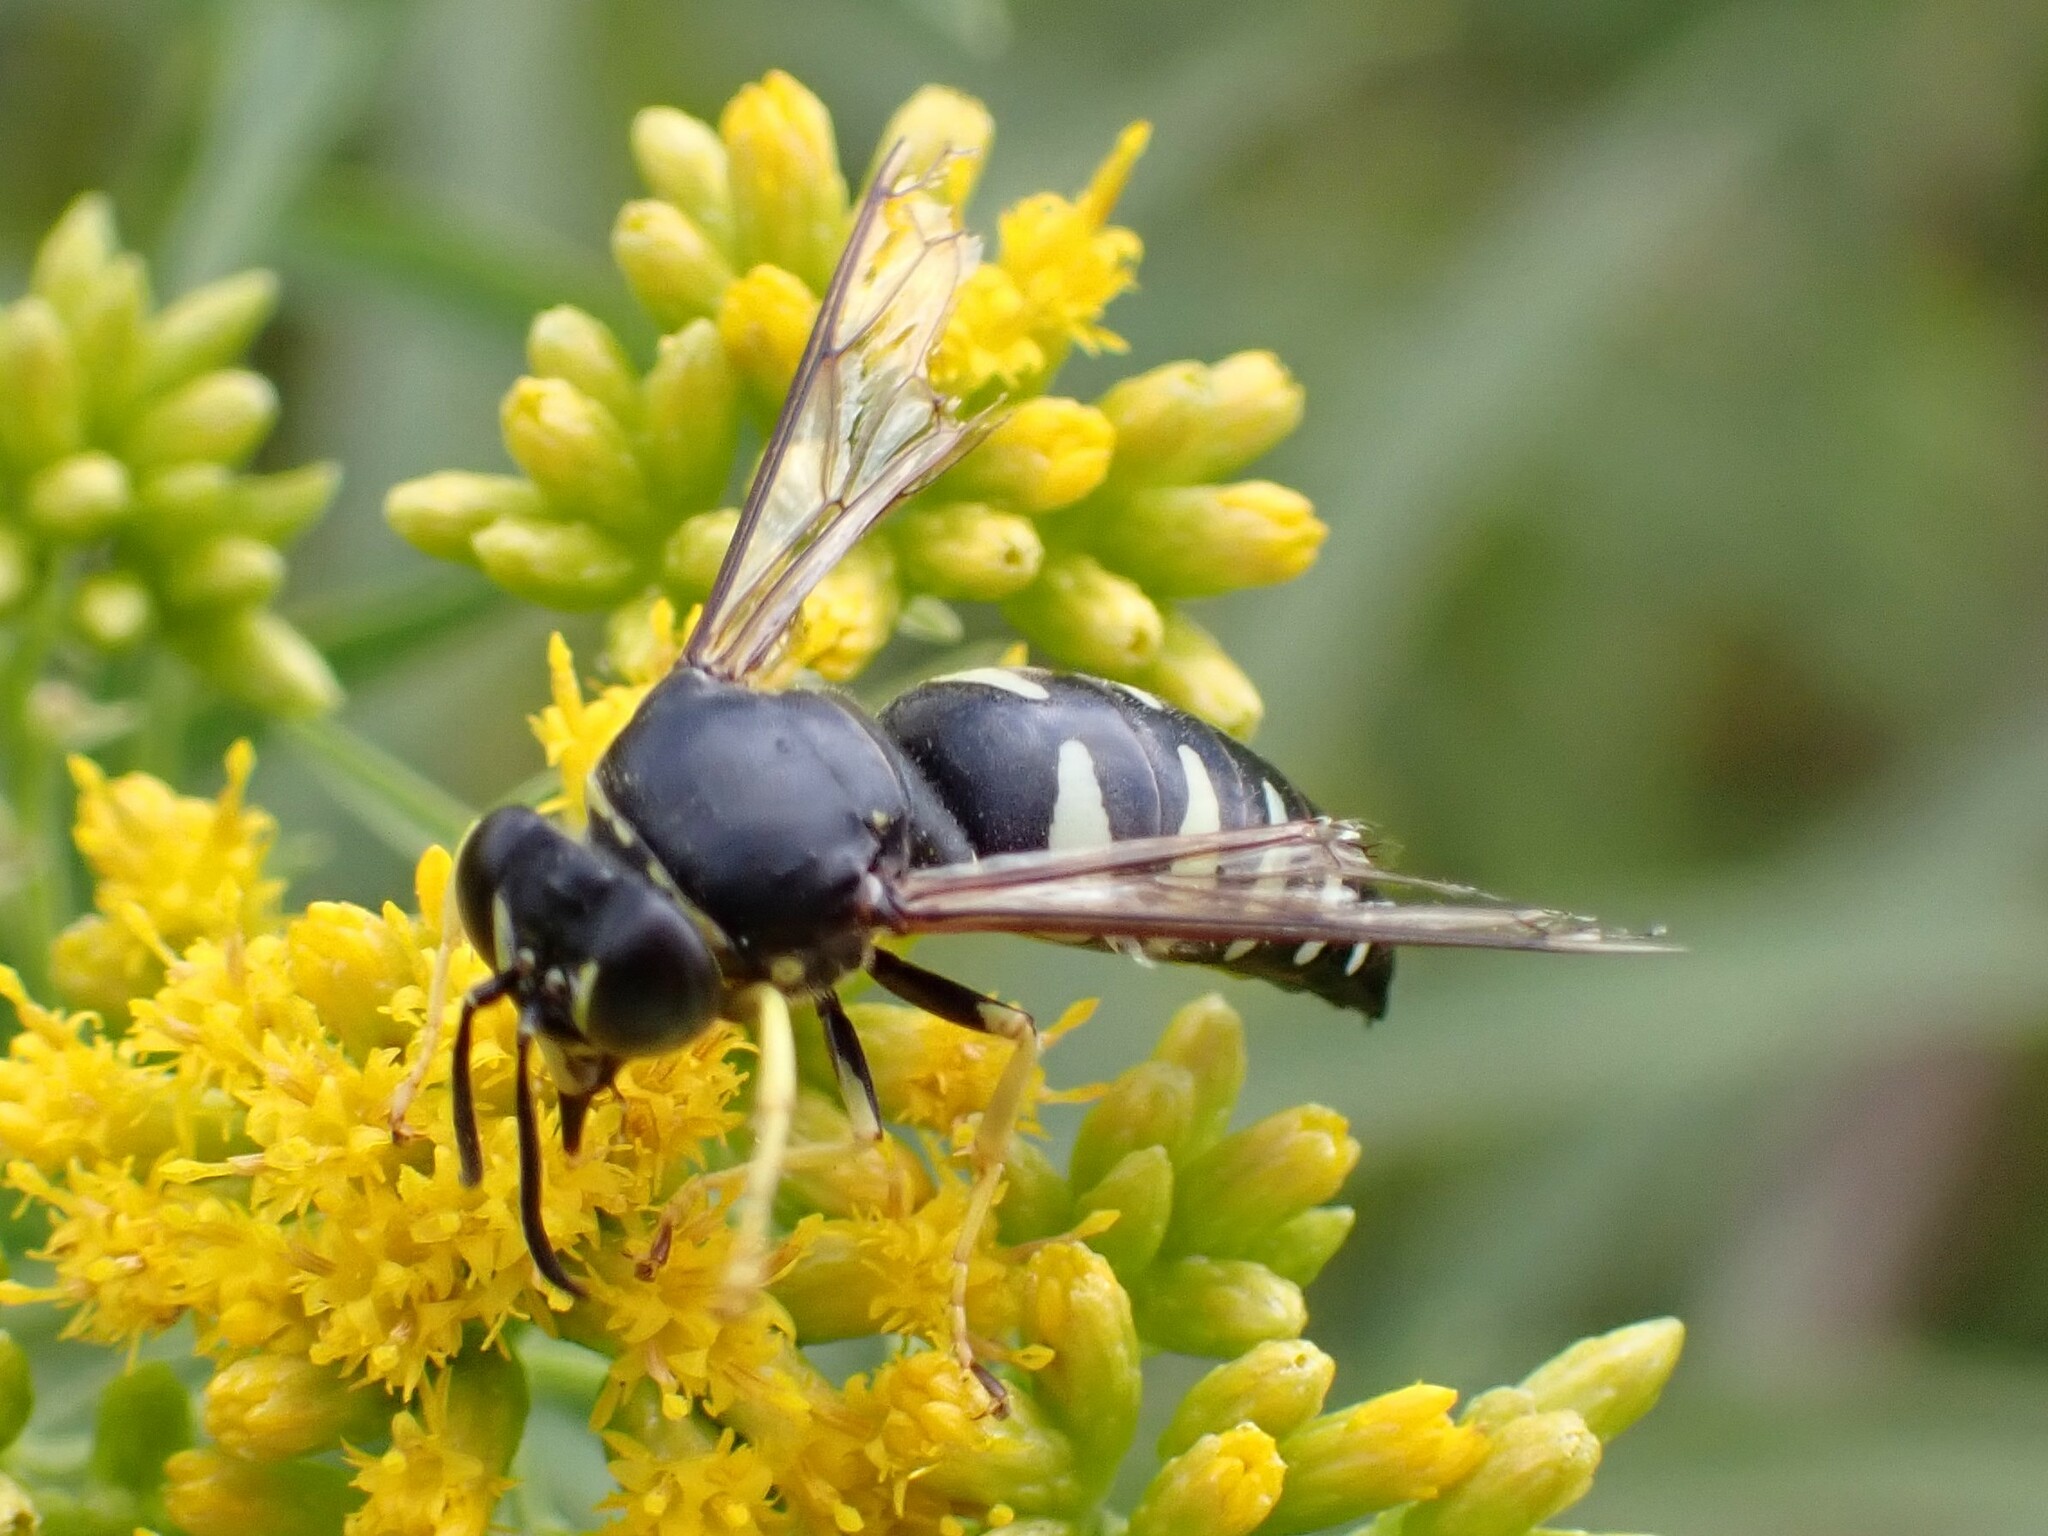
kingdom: Animalia
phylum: Arthropoda
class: Insecta
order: Hymenoptera
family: Crabronidae
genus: Bicyrtes
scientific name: Bicyrtes quadrifasciatus
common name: Four-banded stink bug hunter wasp
